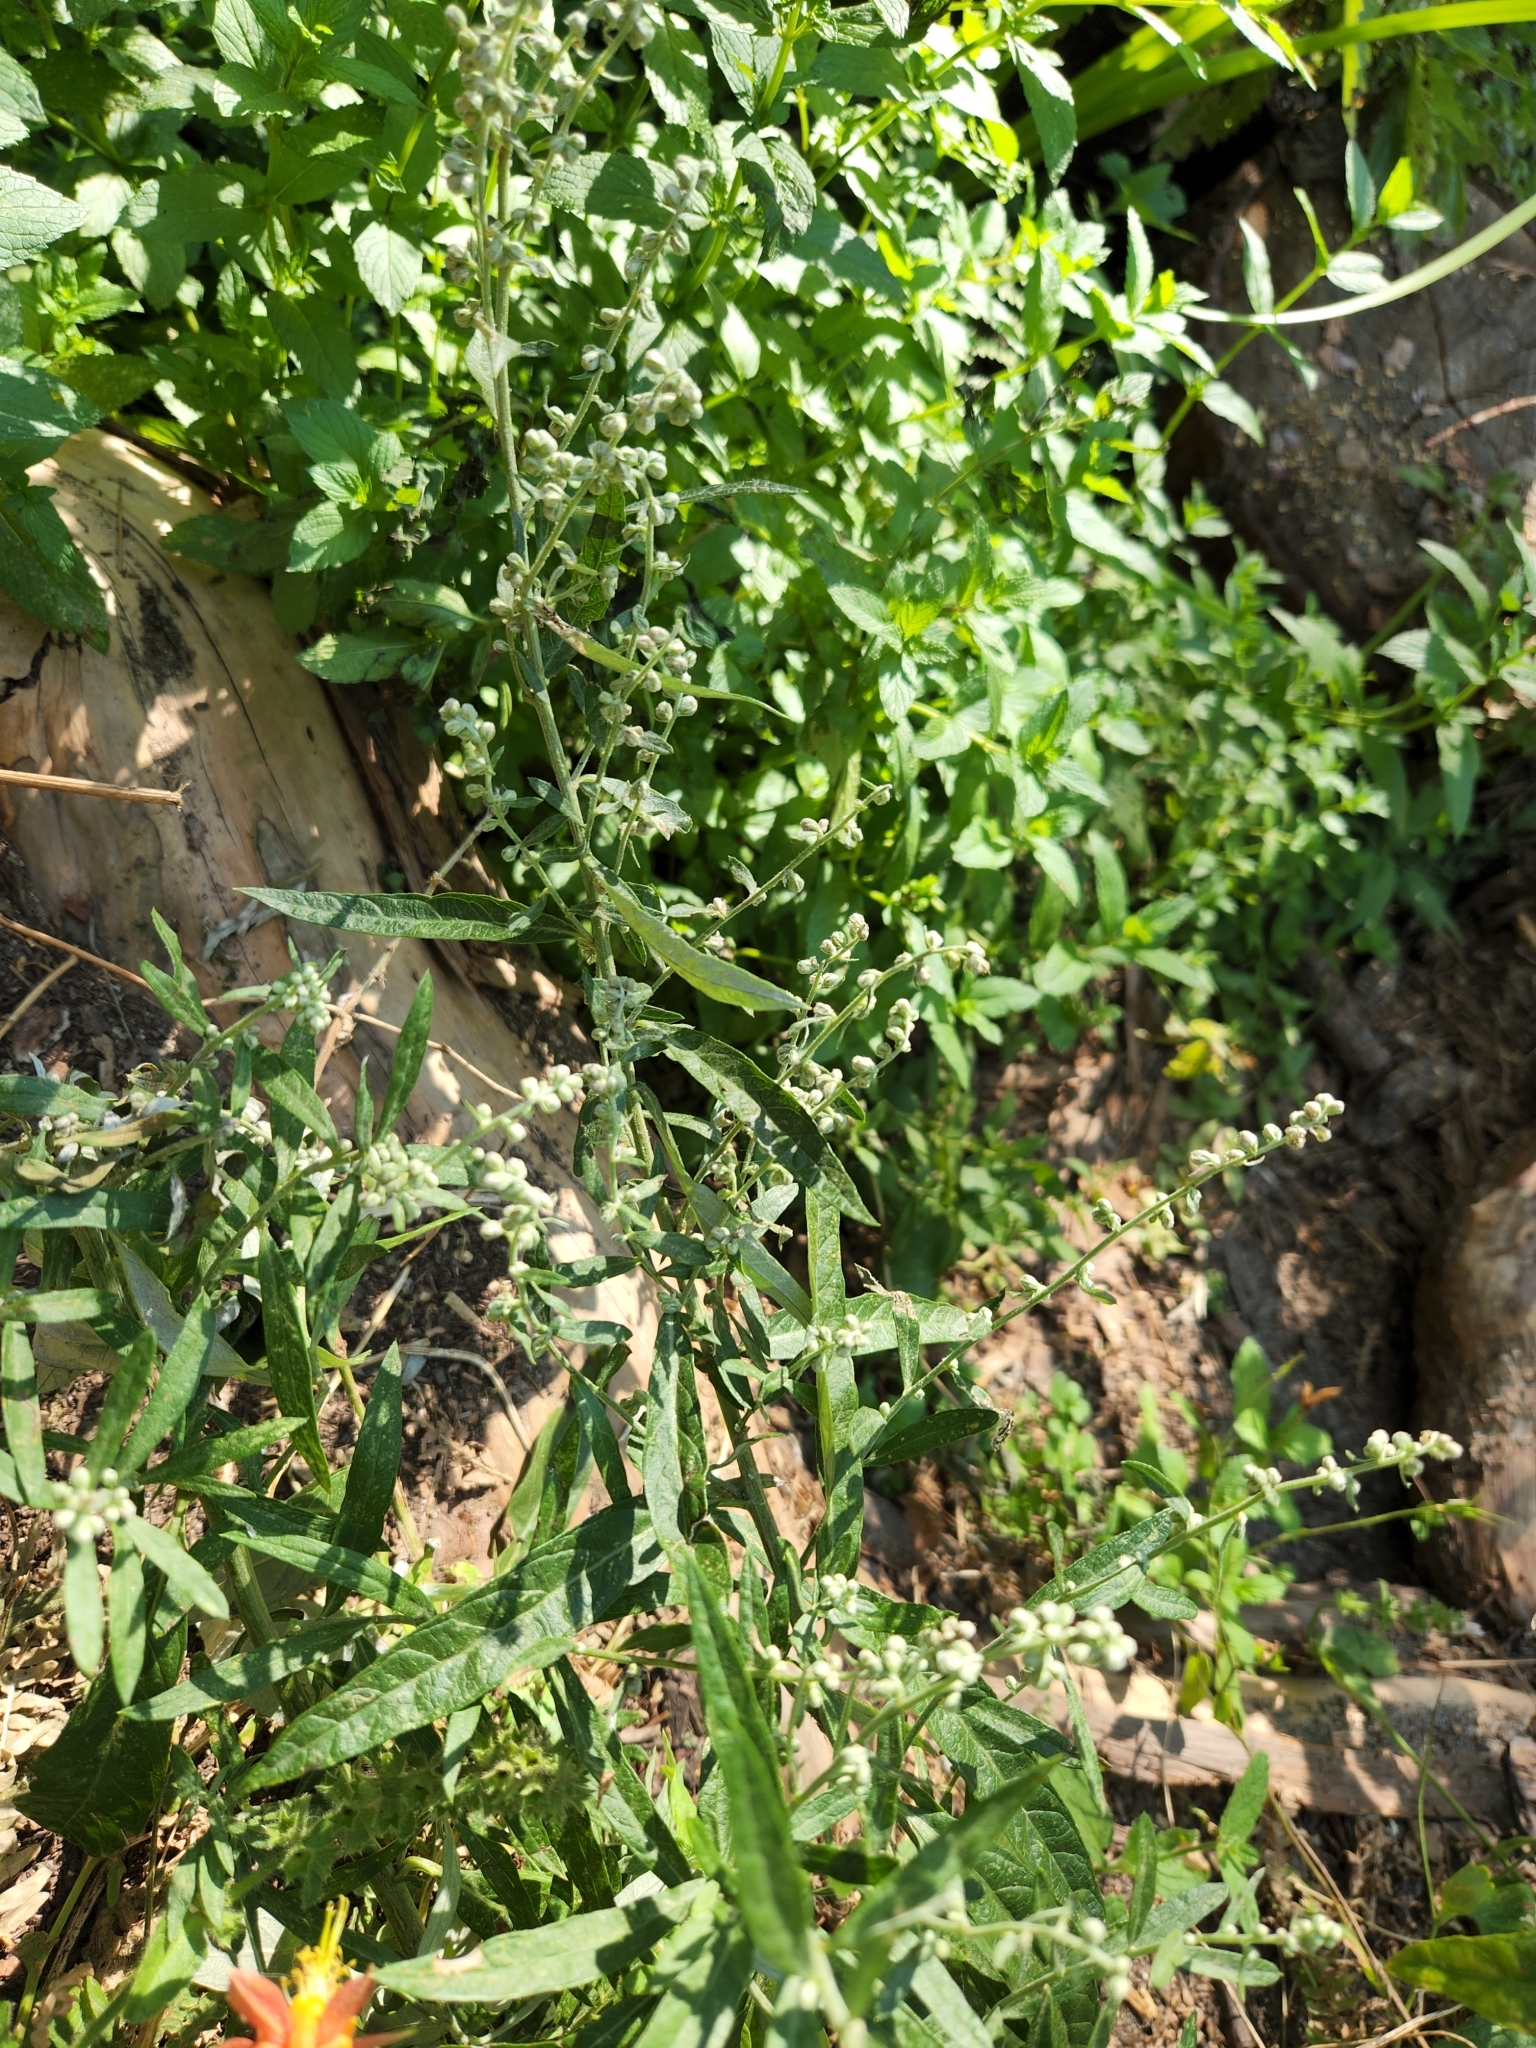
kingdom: Plantae
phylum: Tracheophyta
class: Magnoliopsida
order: Asterales
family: Asteraceae
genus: Artemisia
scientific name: Artemisia douglasiana
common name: Northwest mugwort
